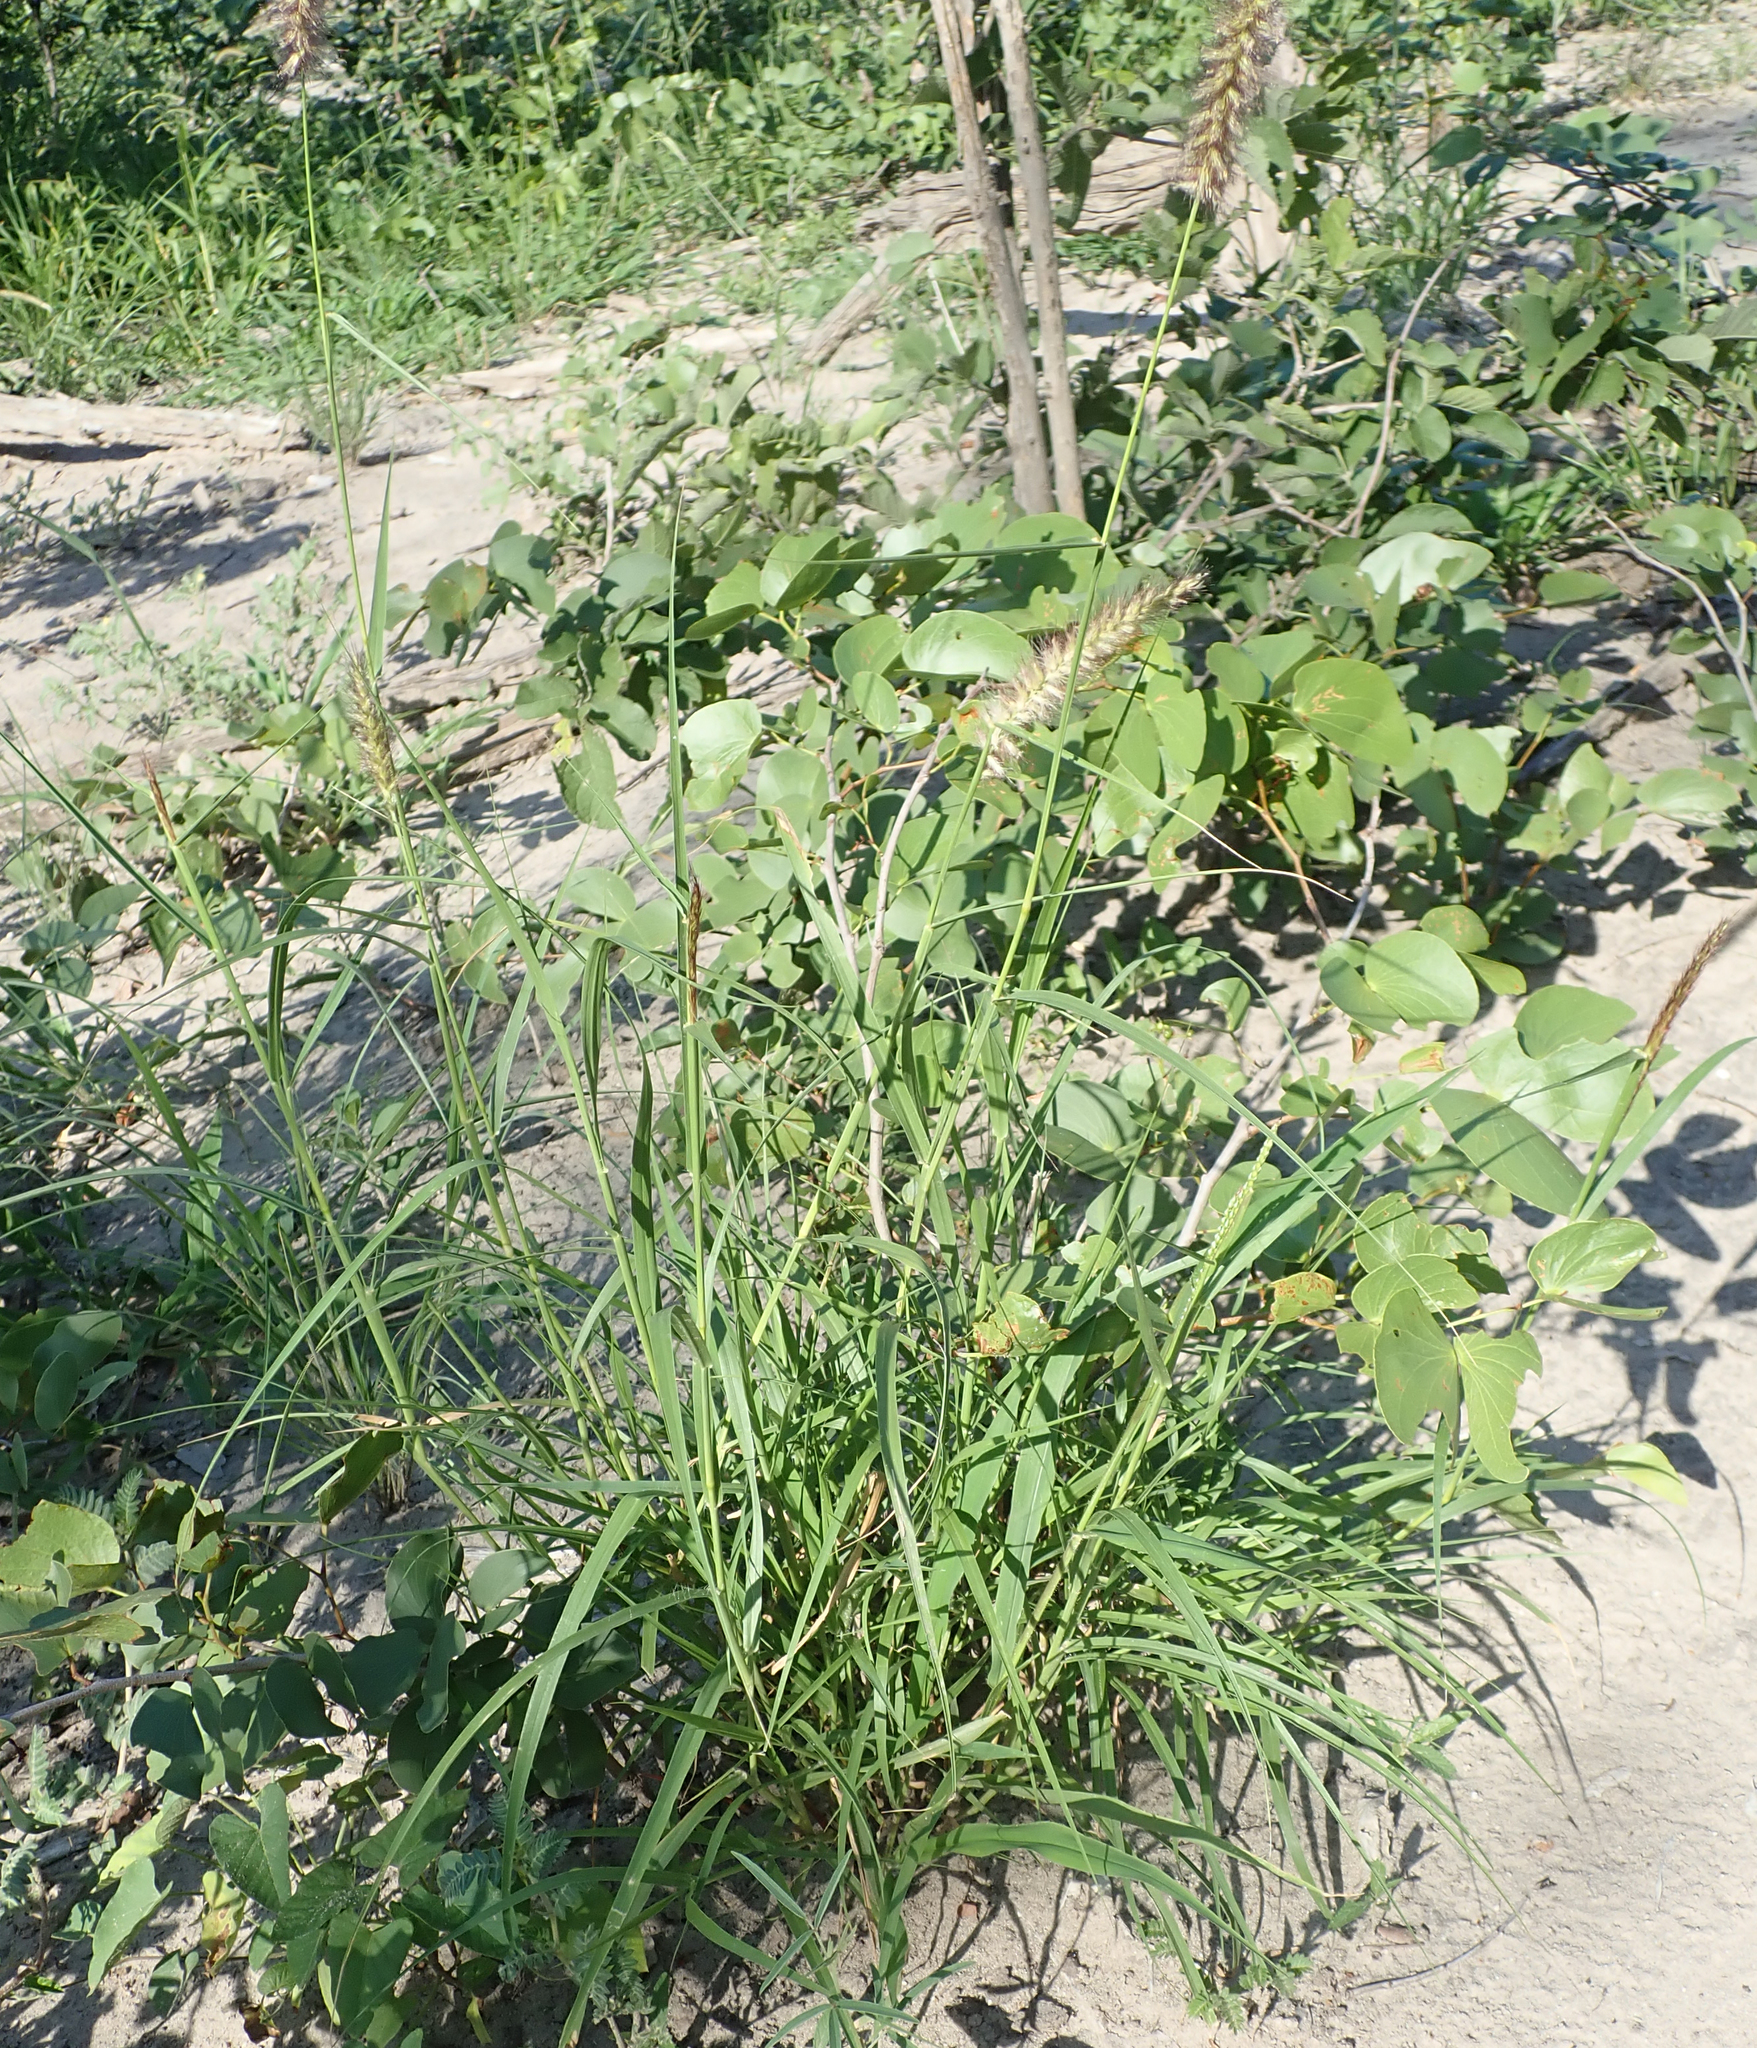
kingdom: Plantae
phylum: Tracheophyta
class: Liliopsida
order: Poales
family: Poaceae
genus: Cenchrus
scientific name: Cenchrus ciliaris
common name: Buffelgrass
